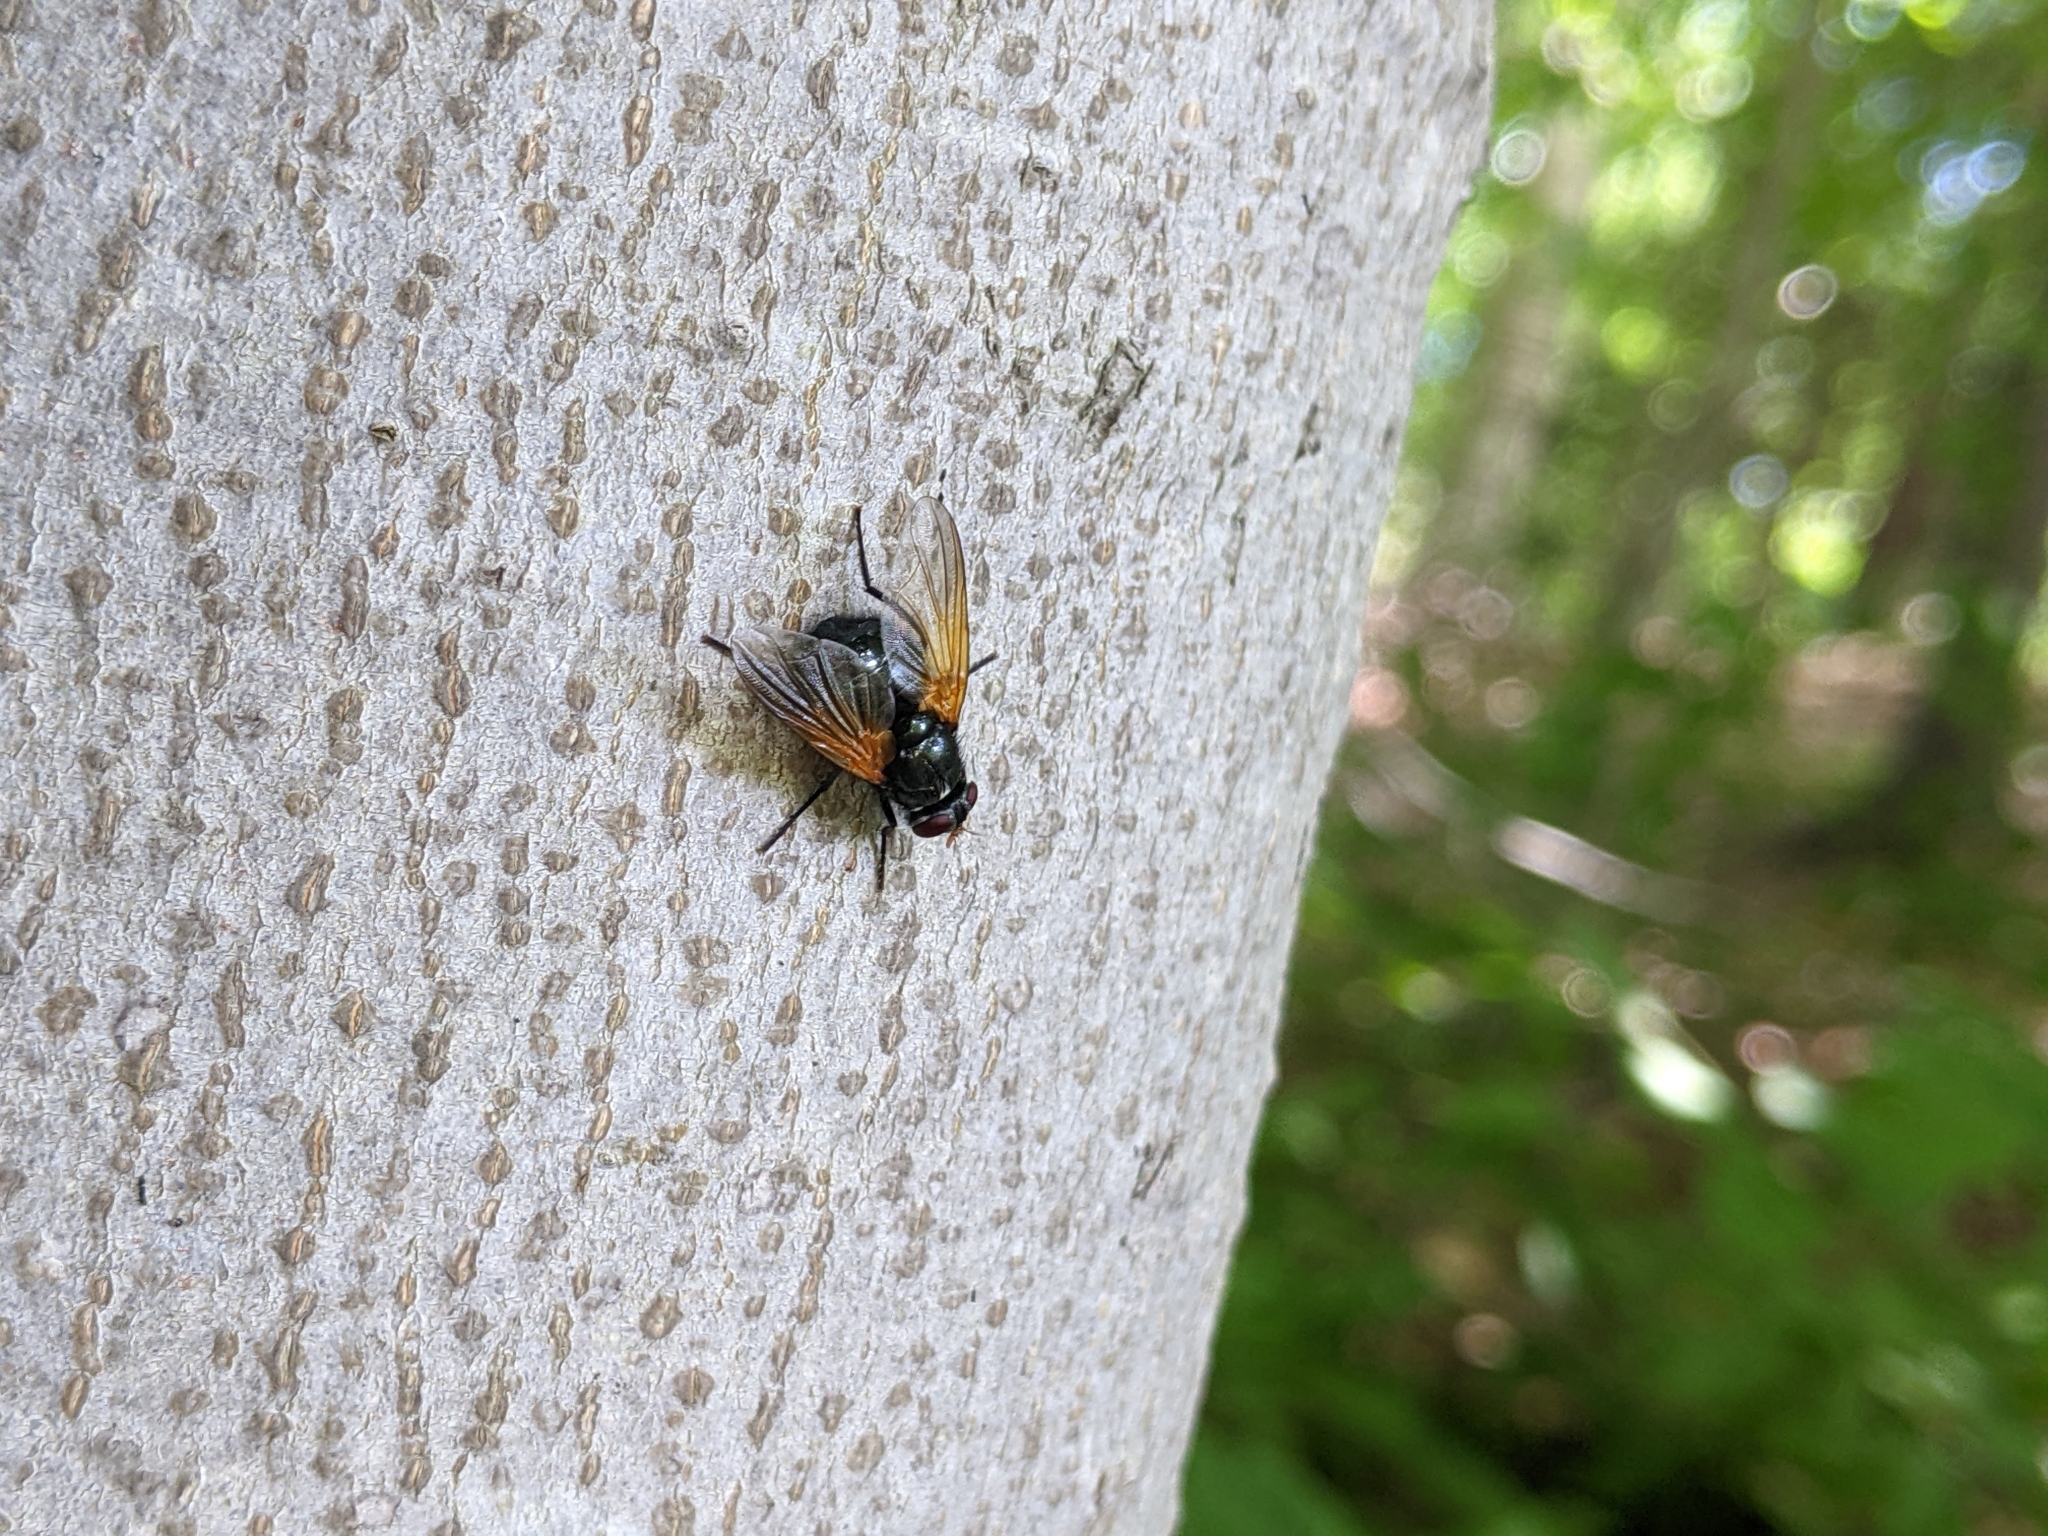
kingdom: Animalia
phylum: Arthropoda
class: Insecta
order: Diptera
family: Muscidae
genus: Mesembrina
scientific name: Mesembrina latreillii
